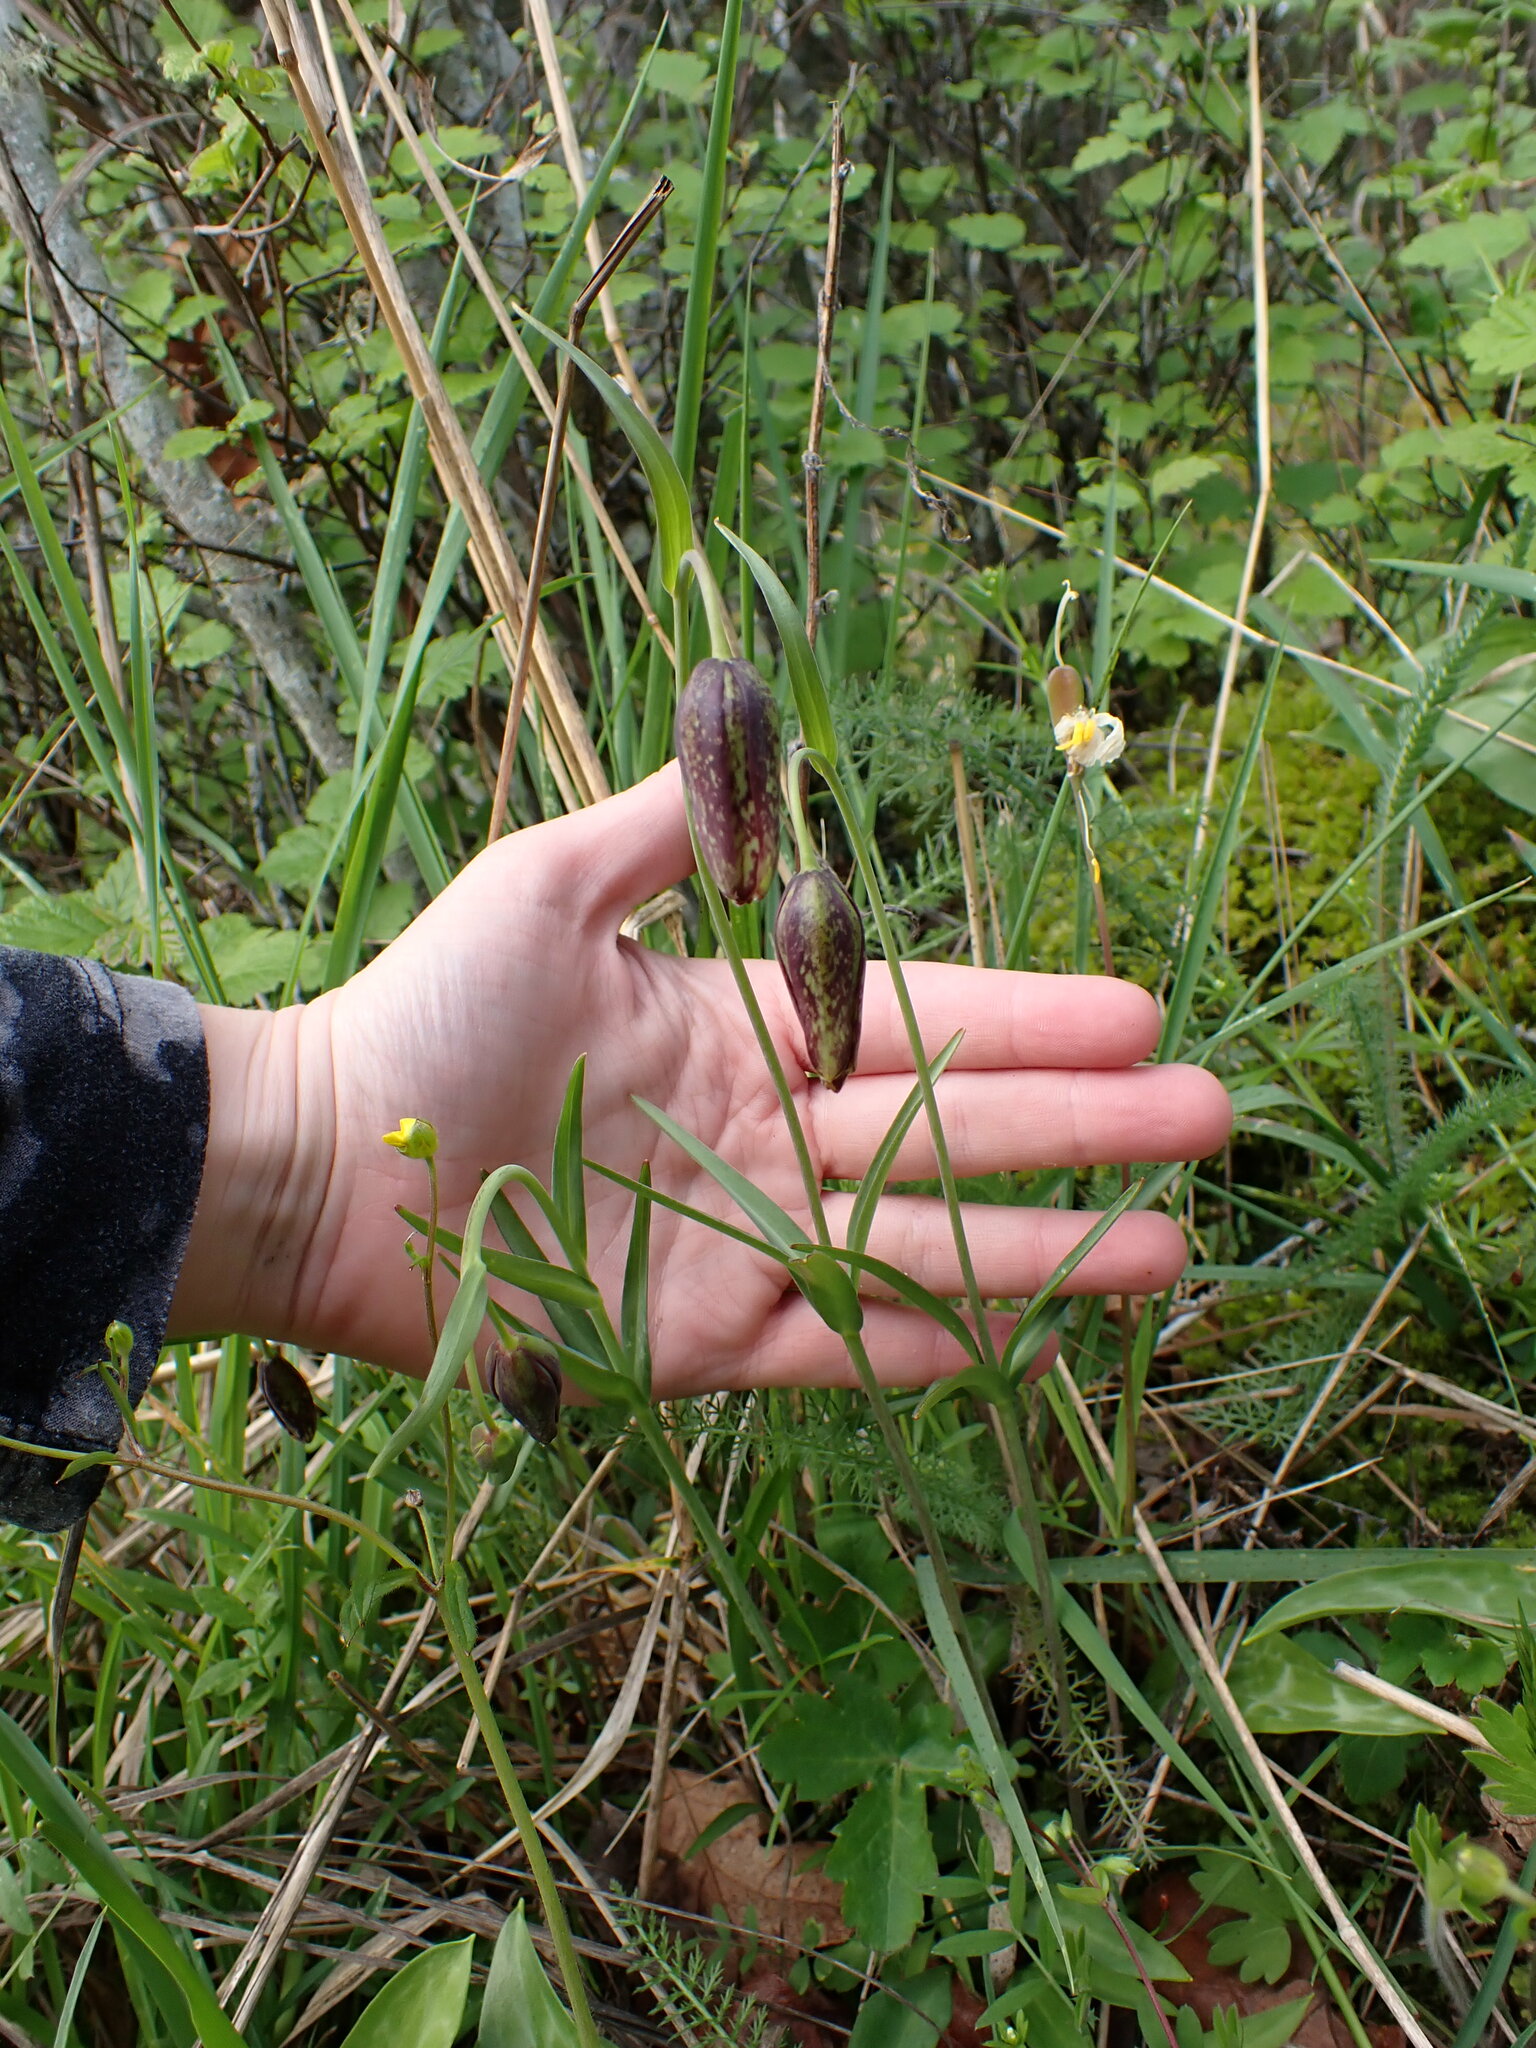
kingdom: Plantae
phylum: Tracheophyta
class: Liliopsida
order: Liliales
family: Liliaceae
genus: Fritillaria
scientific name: Fritillaria affinis
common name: Ojai fritillary
